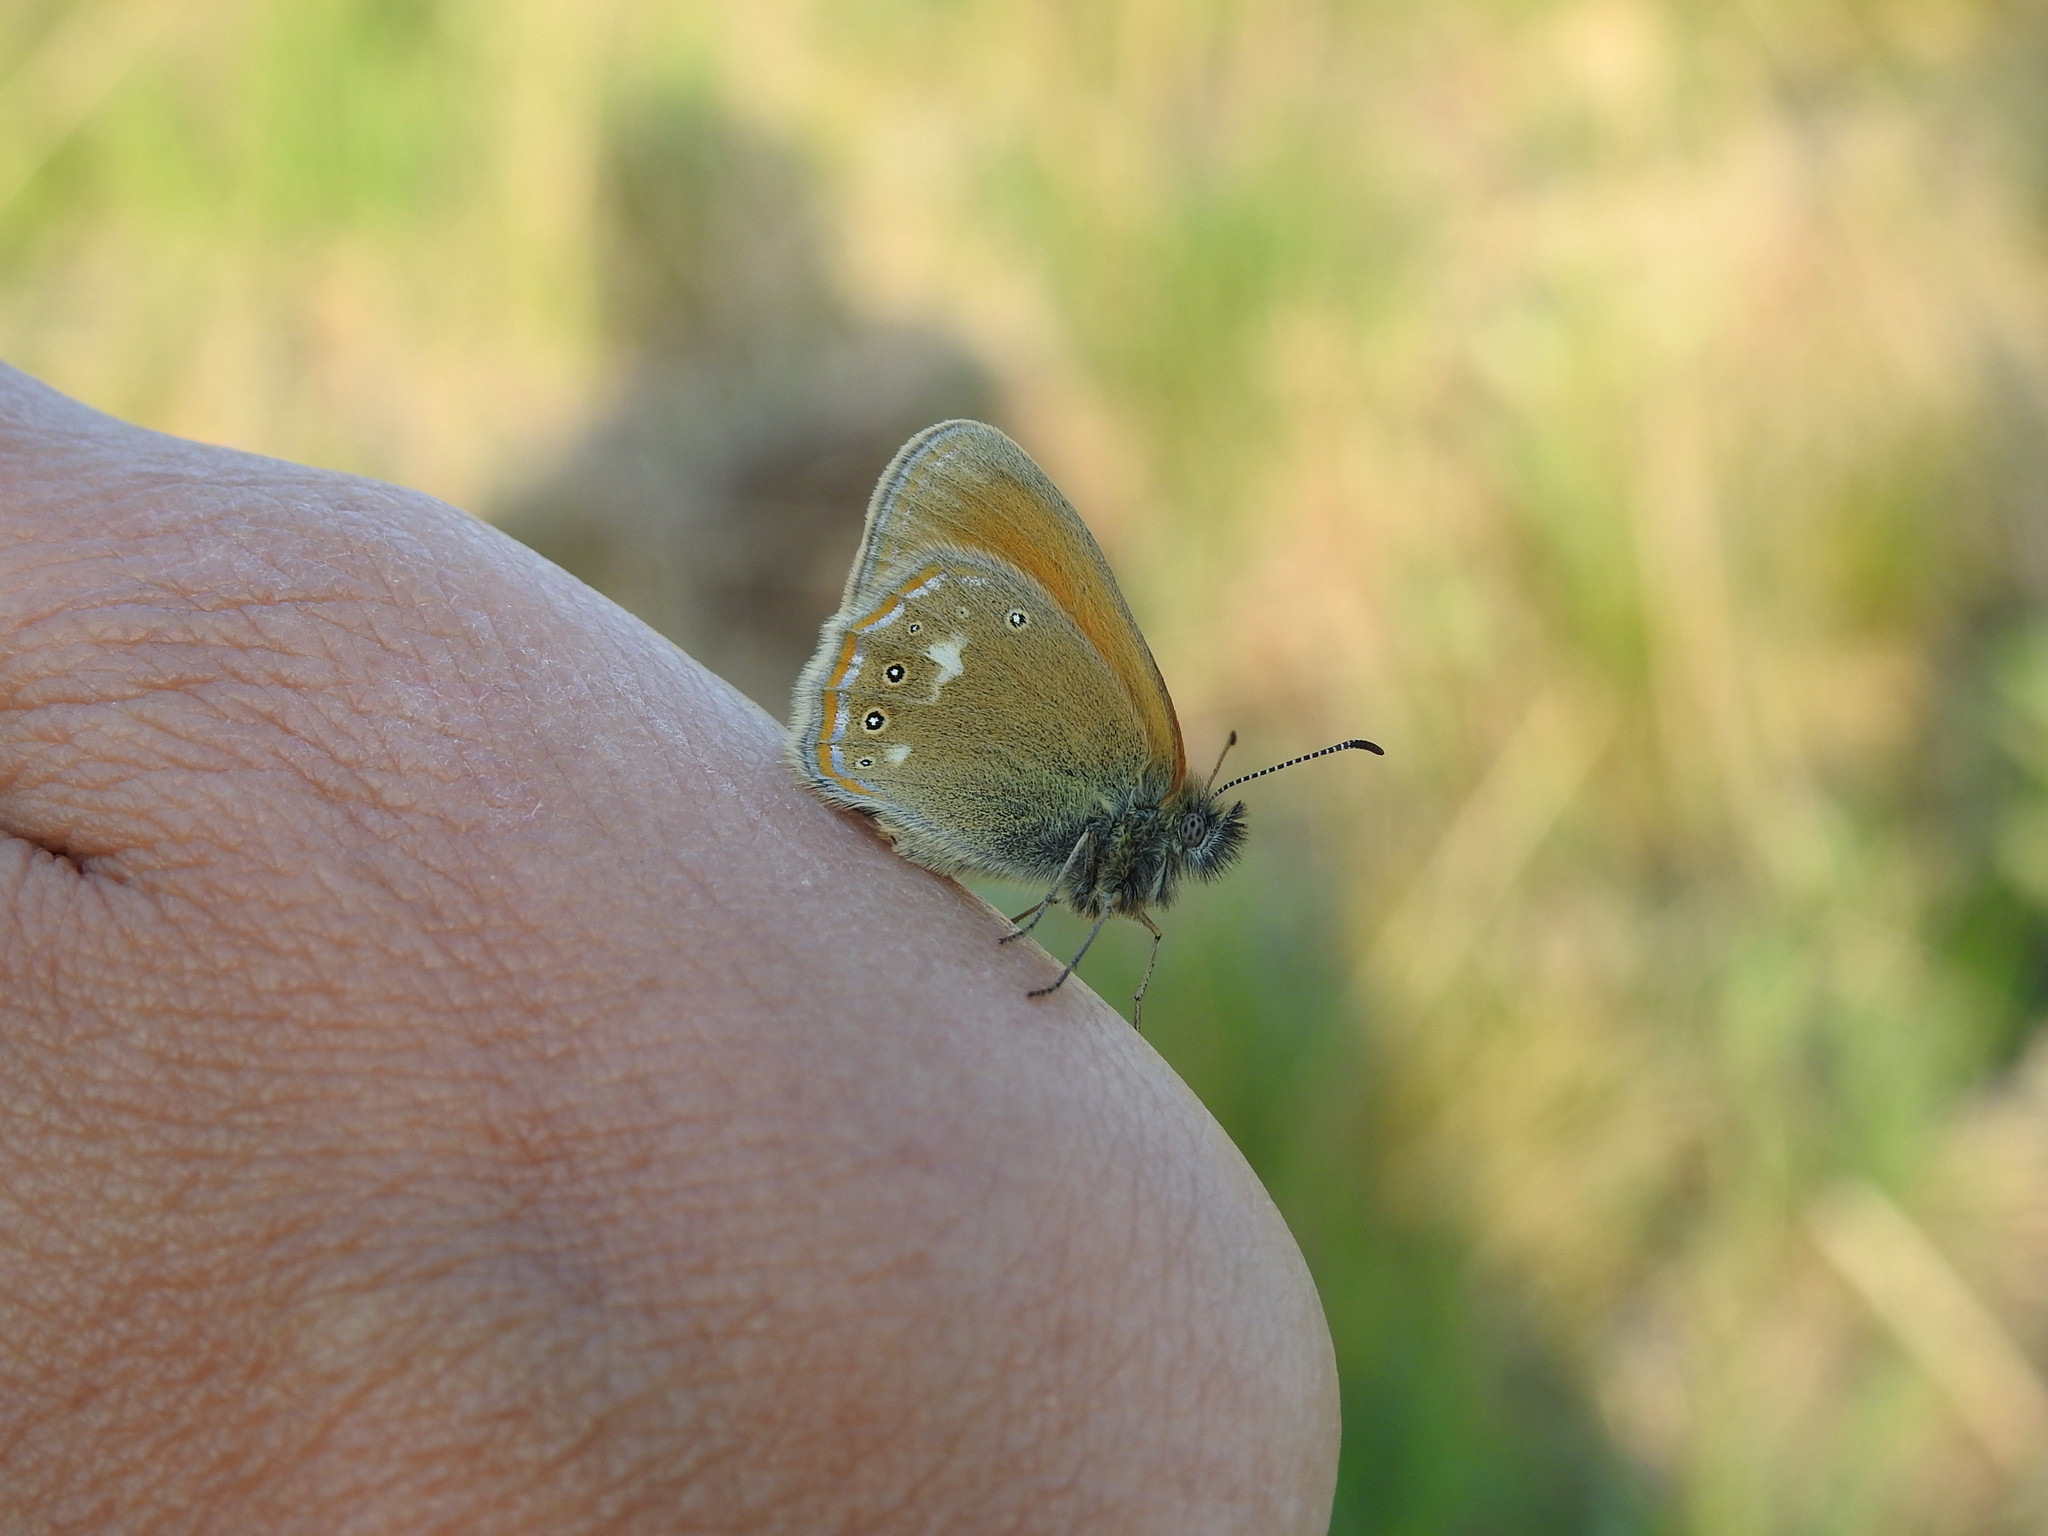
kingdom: Animalia
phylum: Arthropoda
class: Insecta
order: Lepidoptera
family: Nymphalidae
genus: Coenonympha
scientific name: Coenonympha iphis
